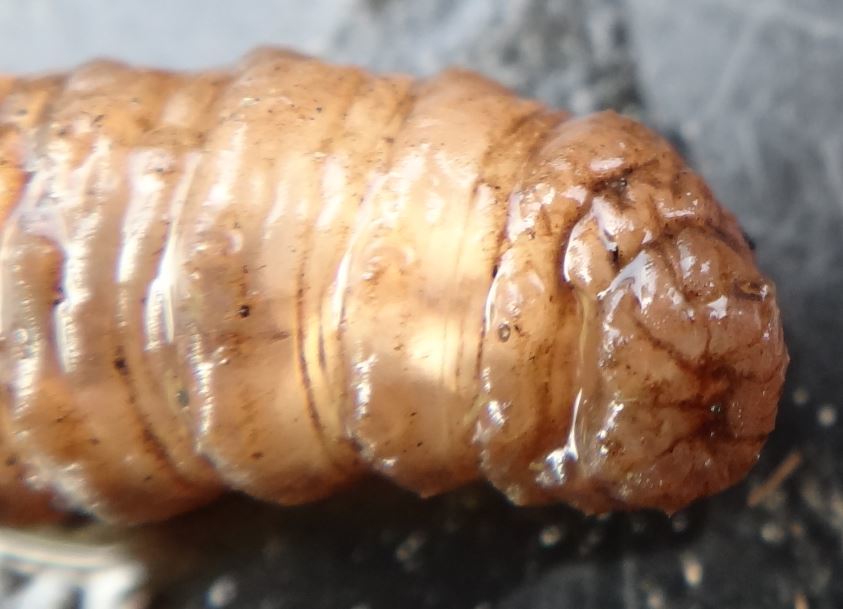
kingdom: Animalia
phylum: Arthropoda
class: Insecta
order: Diptera
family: Syrphidae
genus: Eristalis
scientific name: Eristalis tenax
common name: Drone fly
